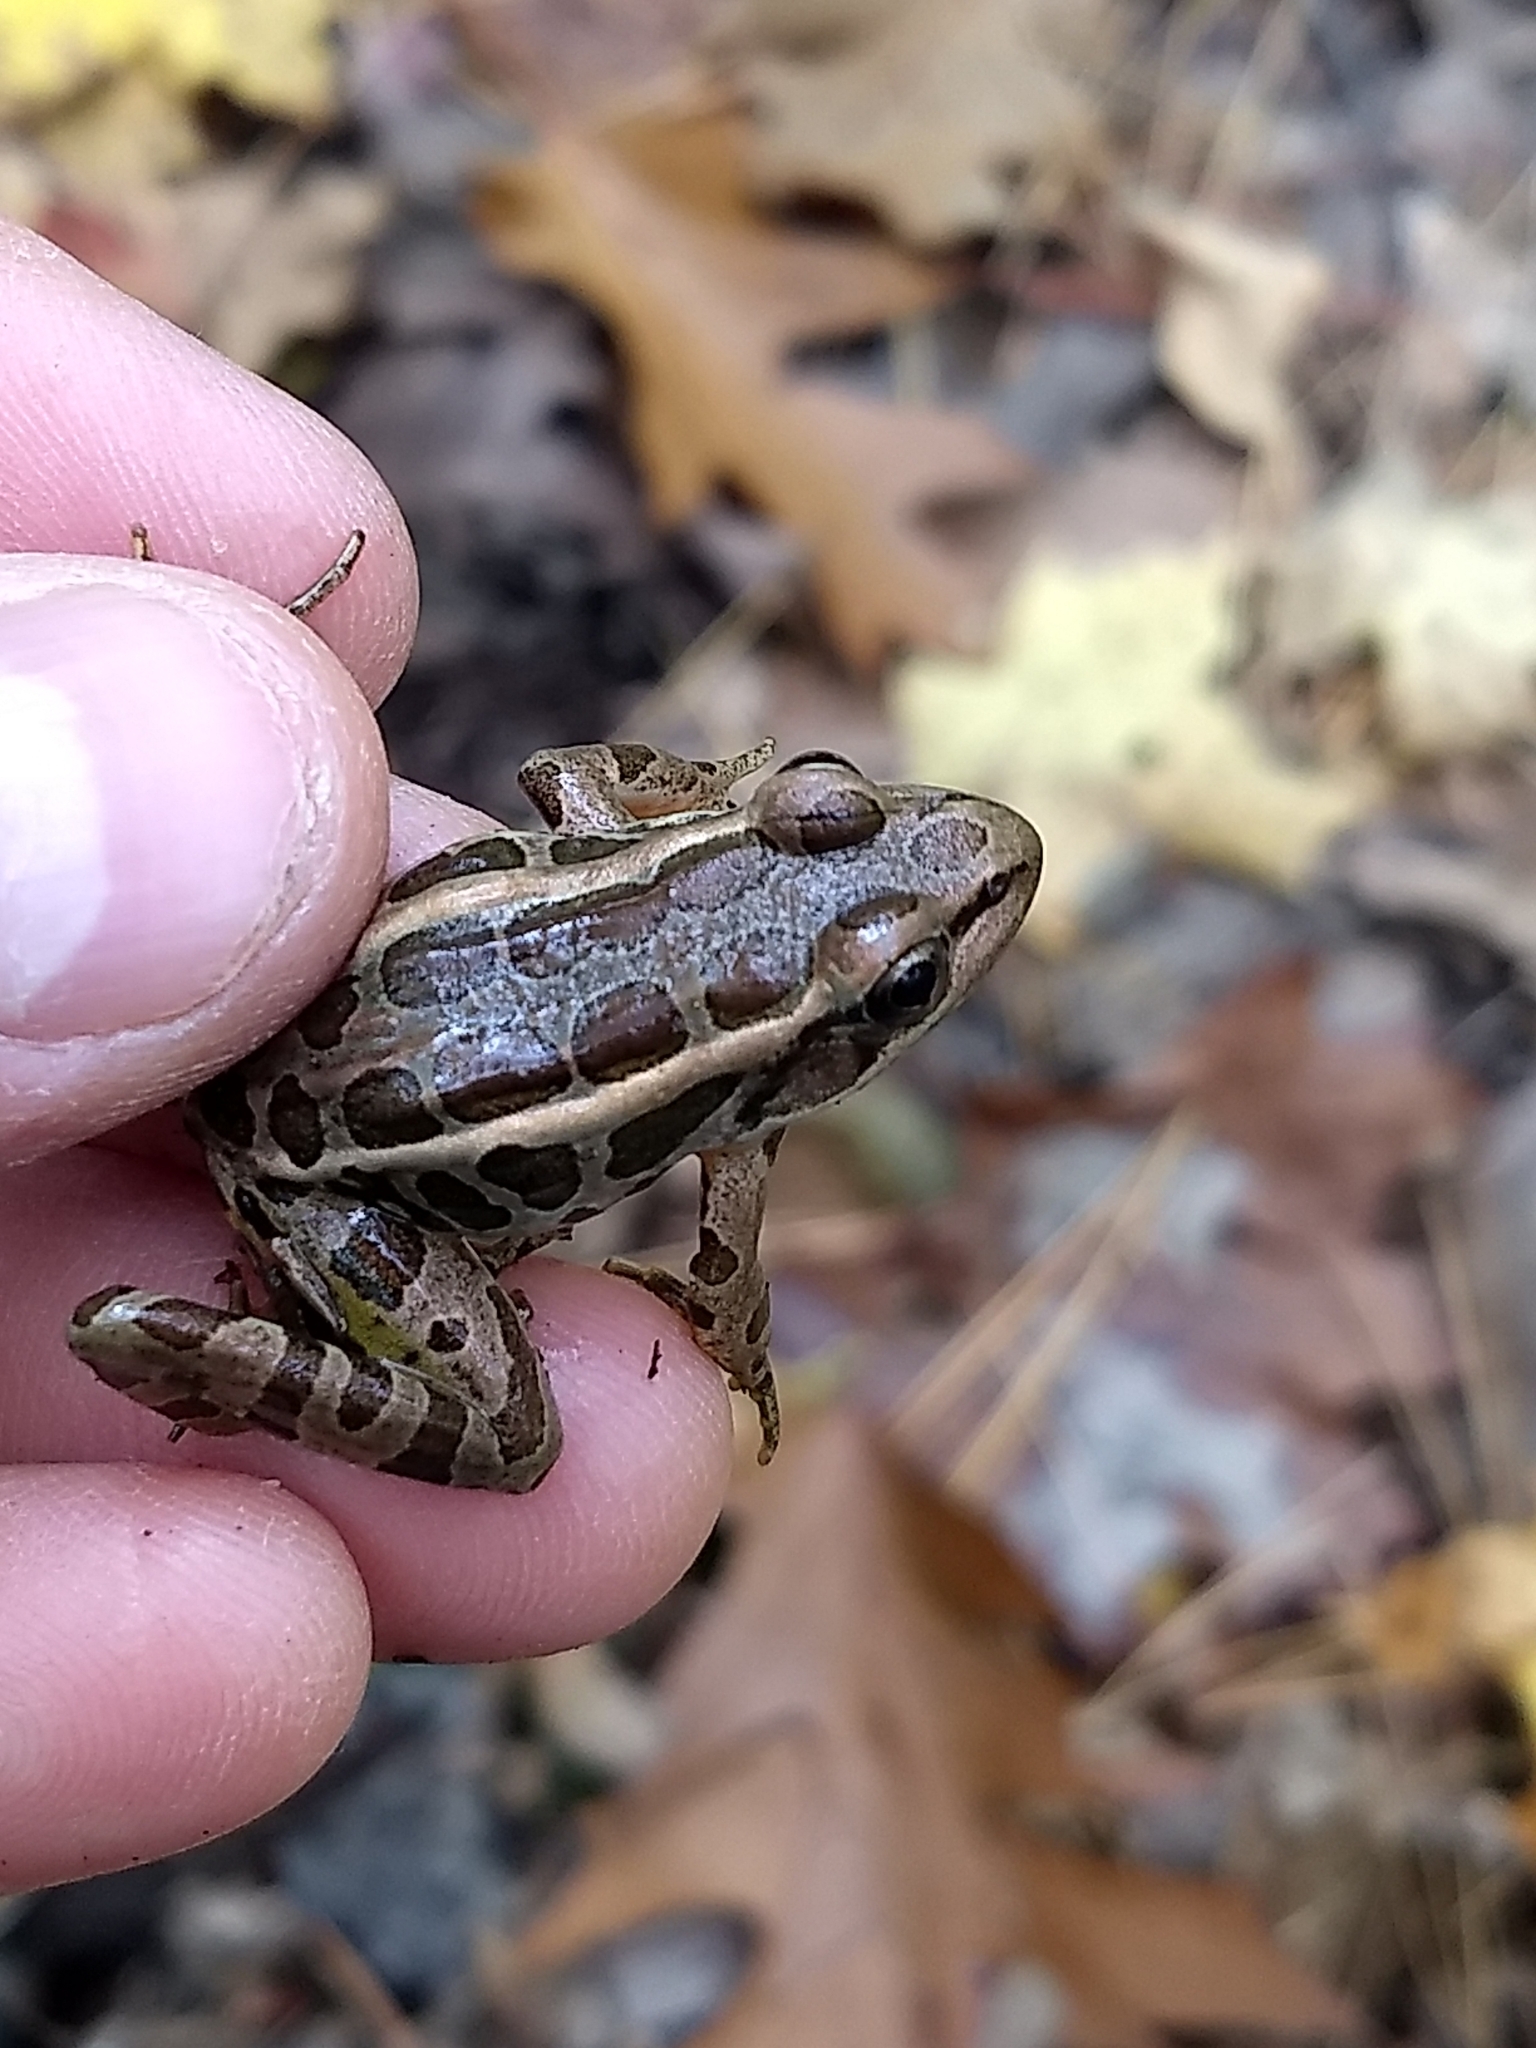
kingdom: Animalia
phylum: Chordata
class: Amphibia
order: Anura
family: Ranidae
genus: Lithobates
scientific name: Lithobates palustris
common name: Pickerel frog
